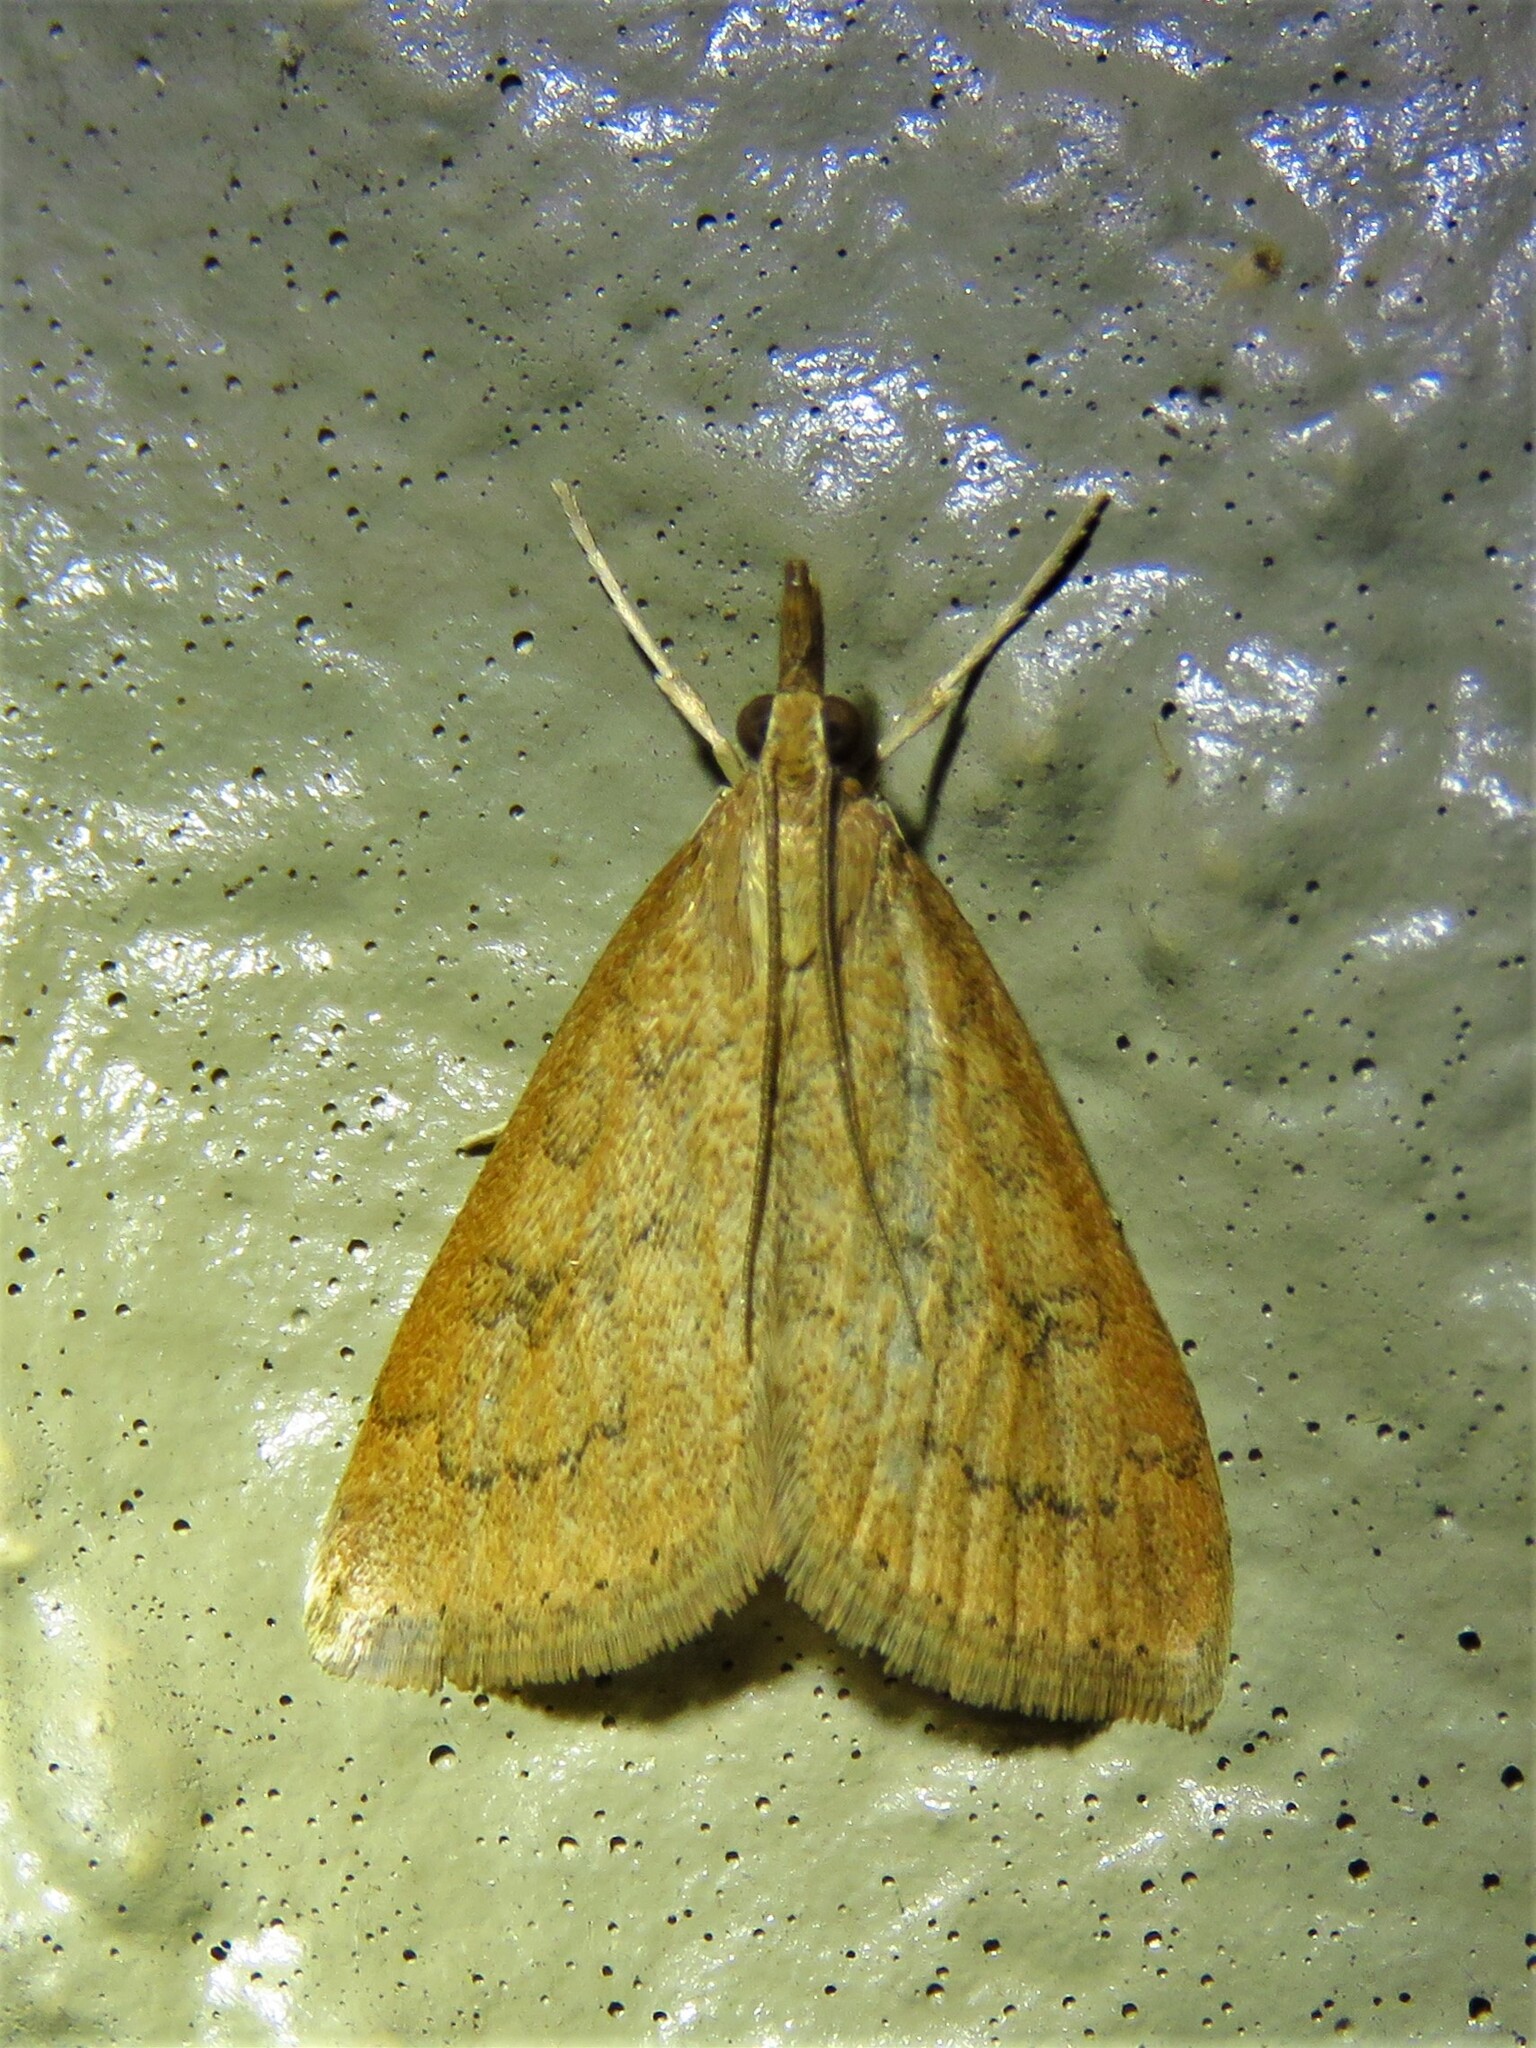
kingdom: Animalia
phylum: Arthropoda
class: Insecta
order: Lepidoptera
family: Crambidae
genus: Udea
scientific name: Udea rubigalis
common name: Celery leaftier moth
